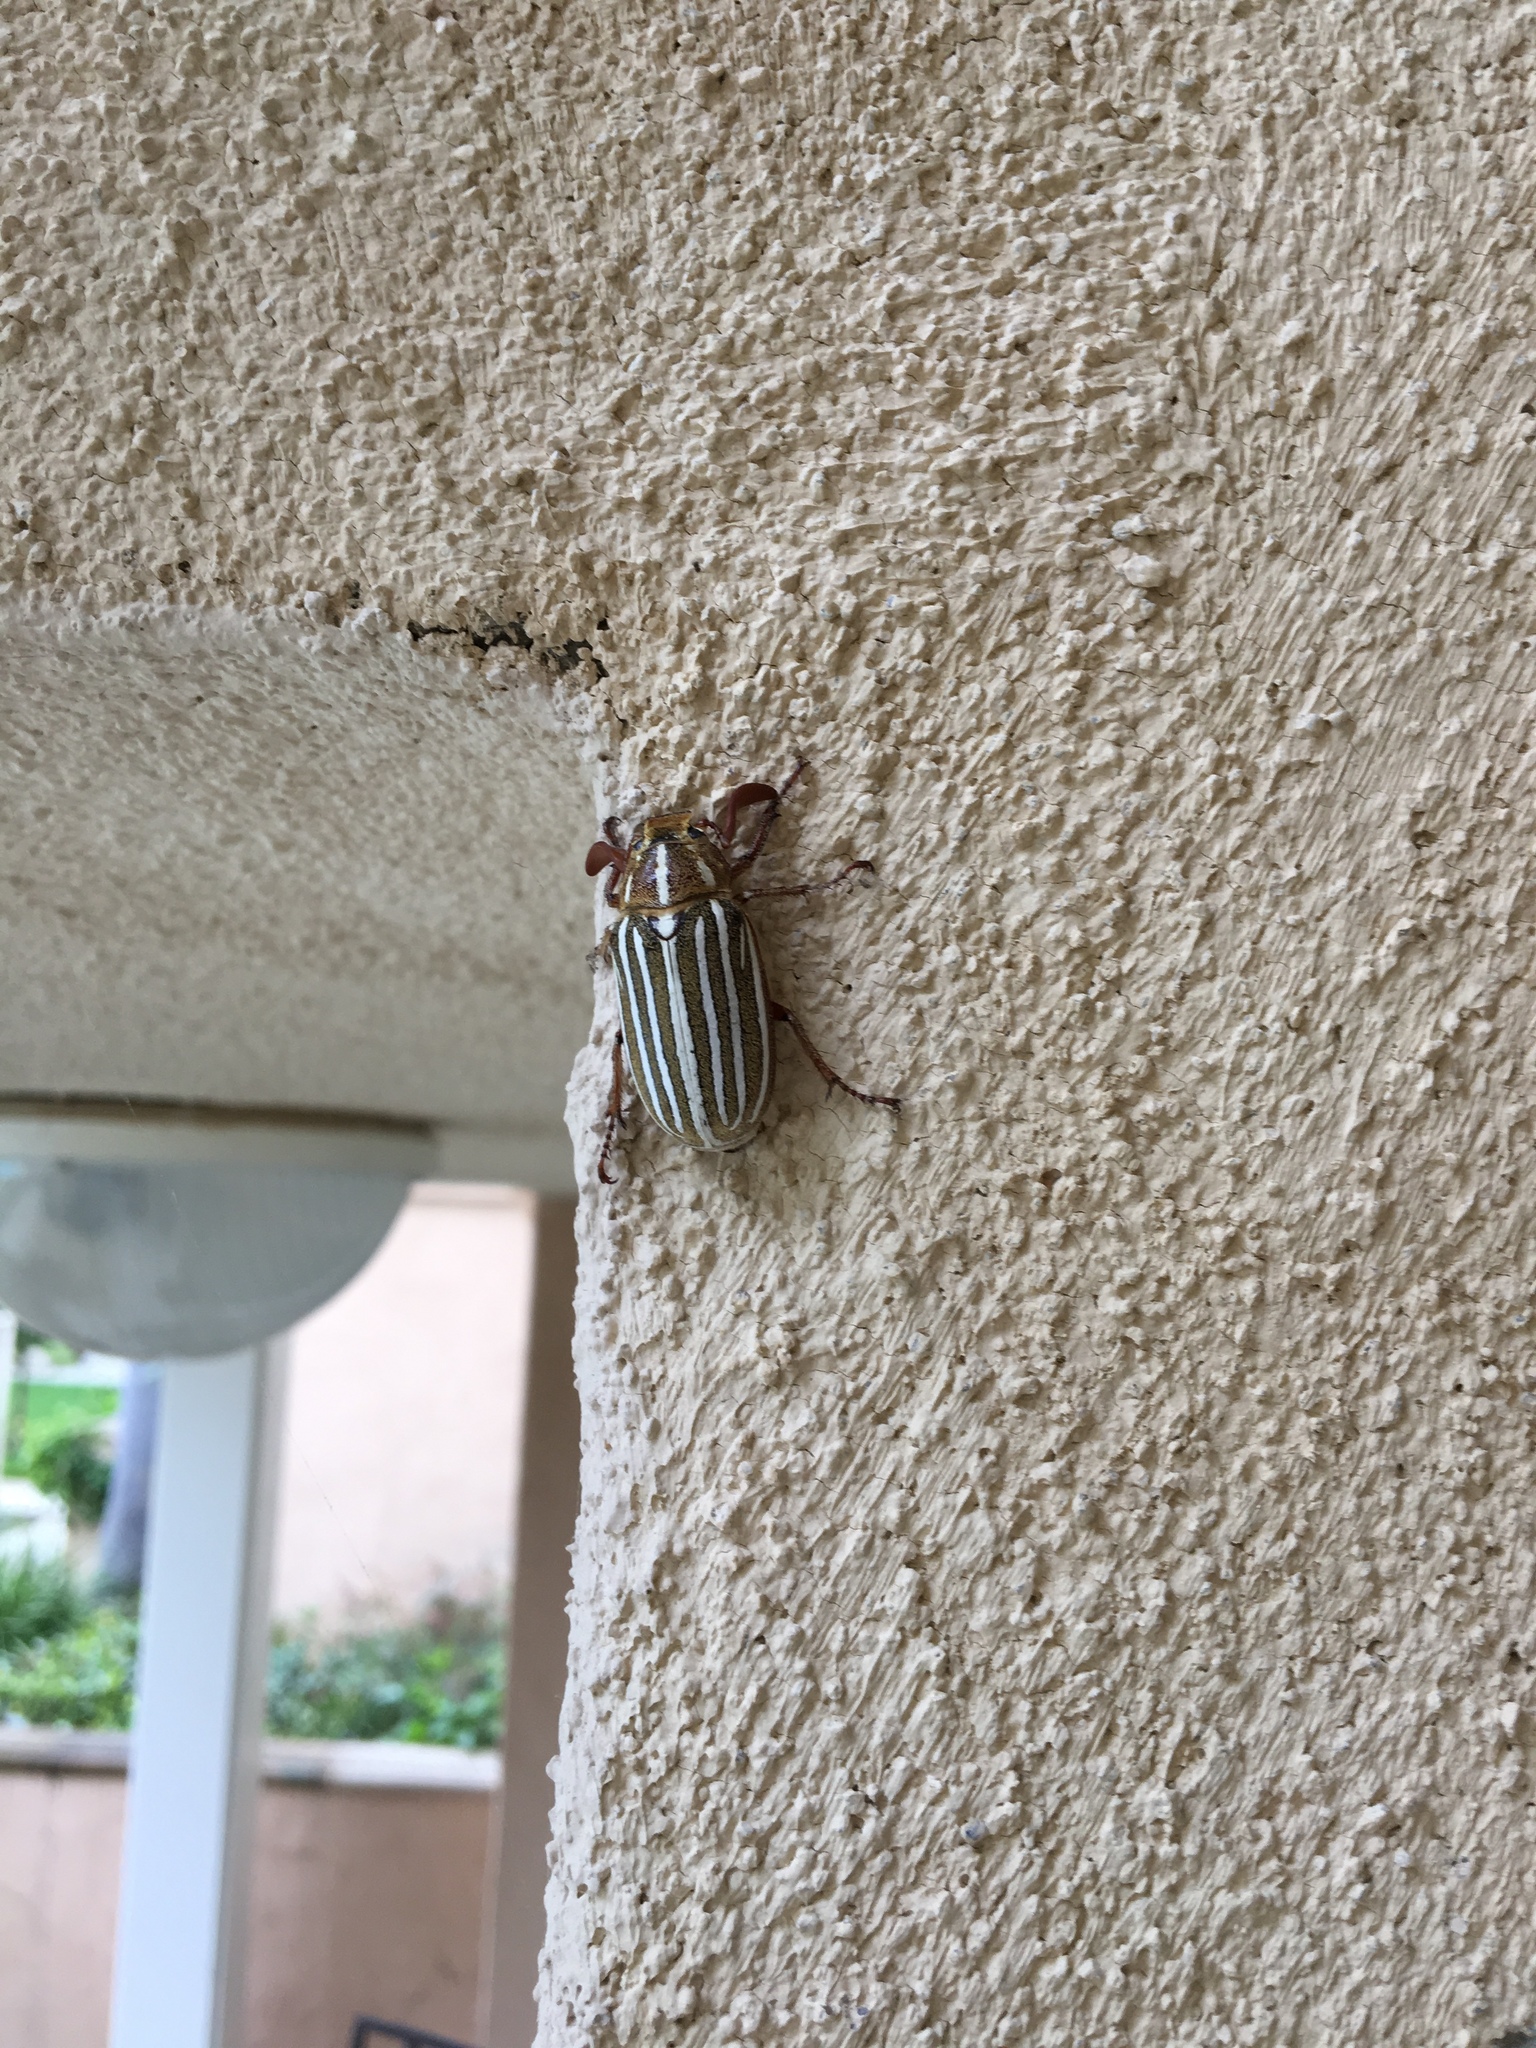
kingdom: Animalia
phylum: Arthropoda
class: Insecta
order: Coleoptera
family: Scarabaeidae
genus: Polyphylla
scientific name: Polyphylla decemlineata
